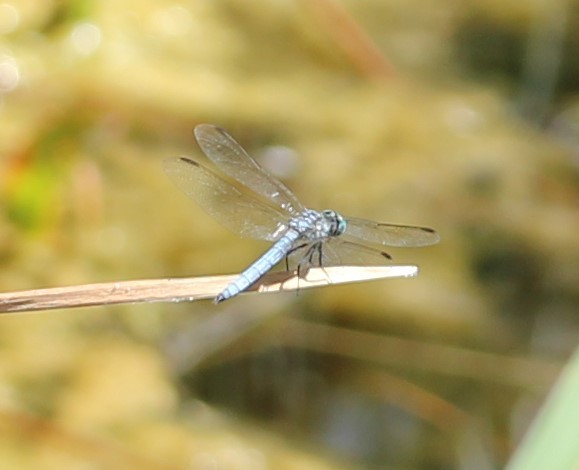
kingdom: Animalia
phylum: Arthropoda
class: Insecta
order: Odonata
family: Libellulidae
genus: Pachydiplax
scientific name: Pachydiplax longipennis
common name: Blue dasher
